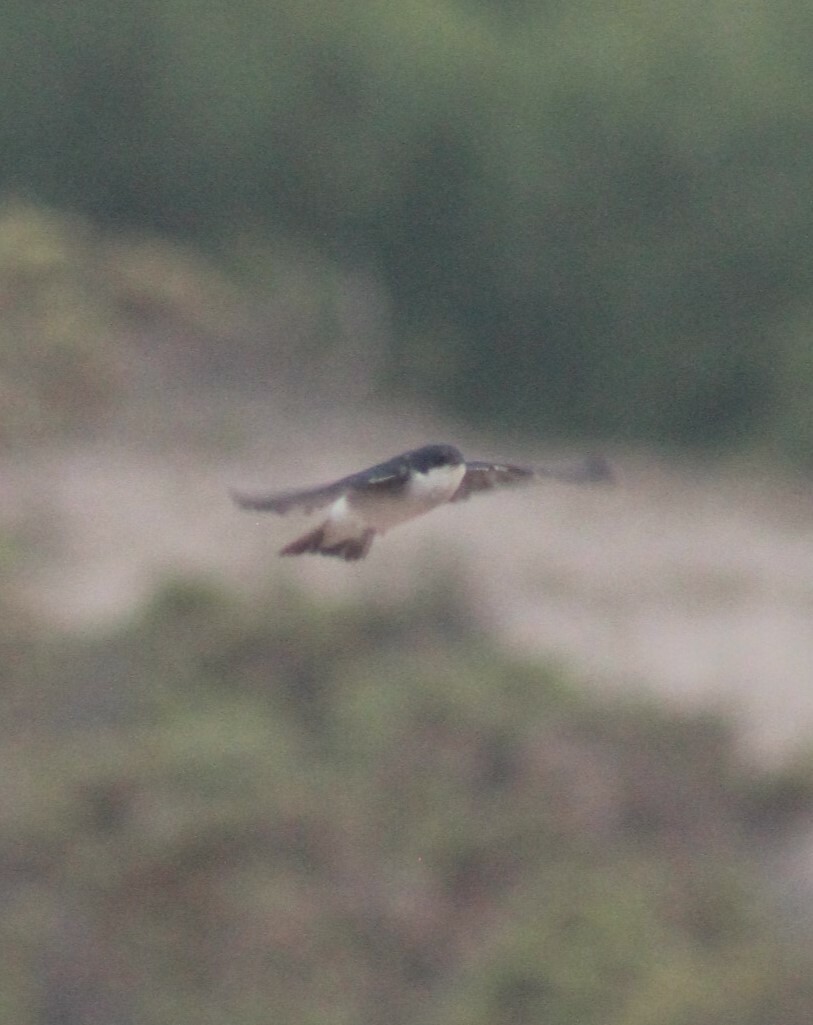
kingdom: Animalia
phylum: Chordata
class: Aves
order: Passeriformes
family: Hirundinidae
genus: Tachycineta
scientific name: Tachycineta leucopyga
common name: Chilean swallow
